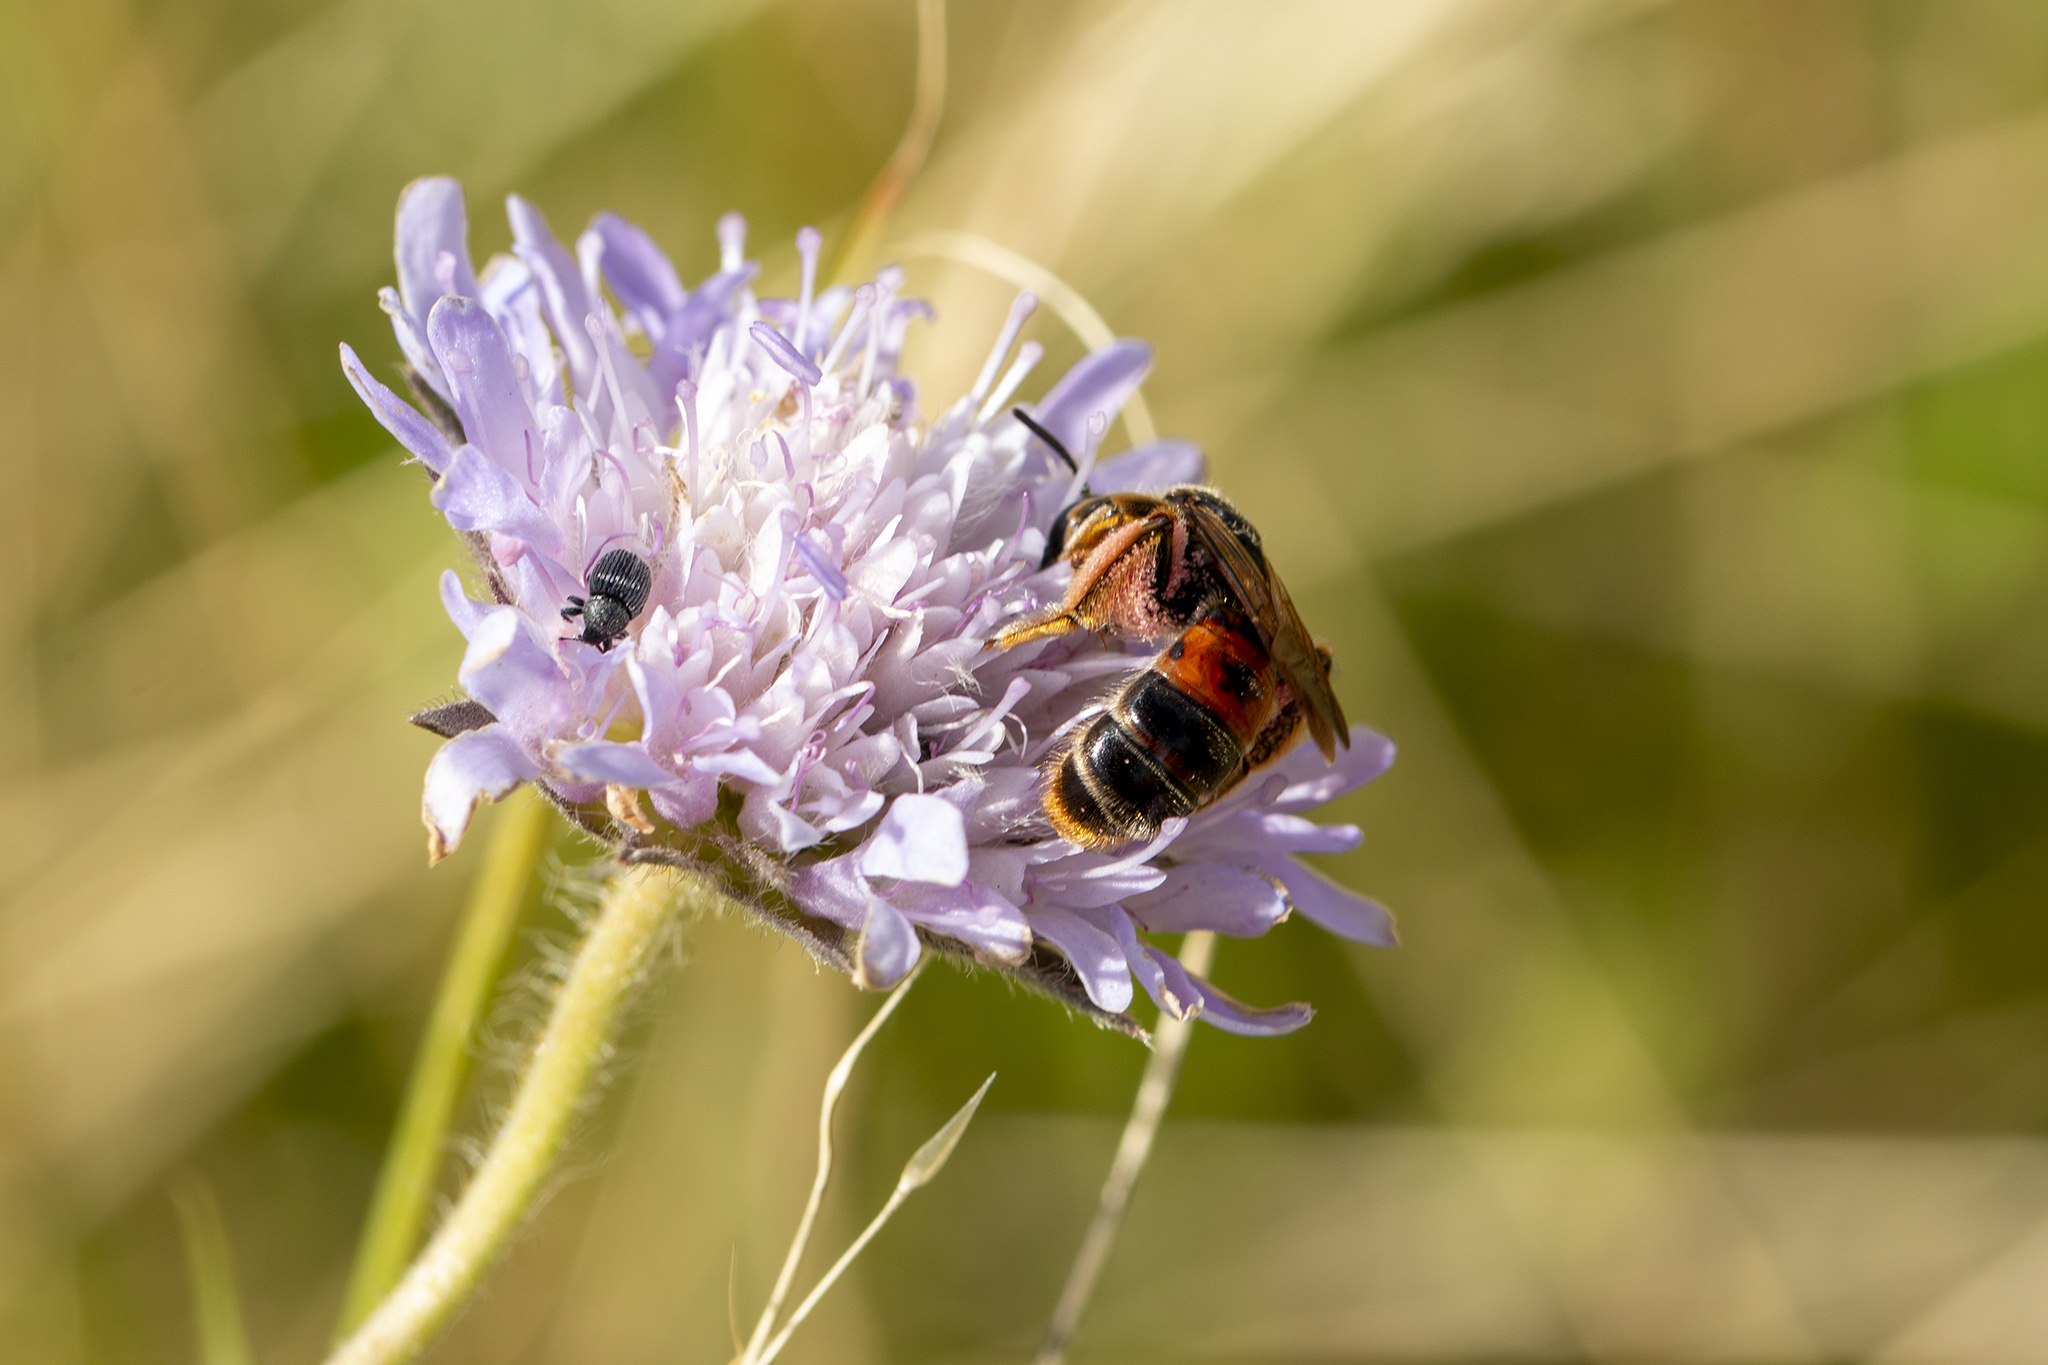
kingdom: Animalia
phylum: Arthropoda
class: Insecta
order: Hymenoptera
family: Andrenidae
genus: Andrena
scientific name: Andrena hattorfiana
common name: Large scabious mining bee
